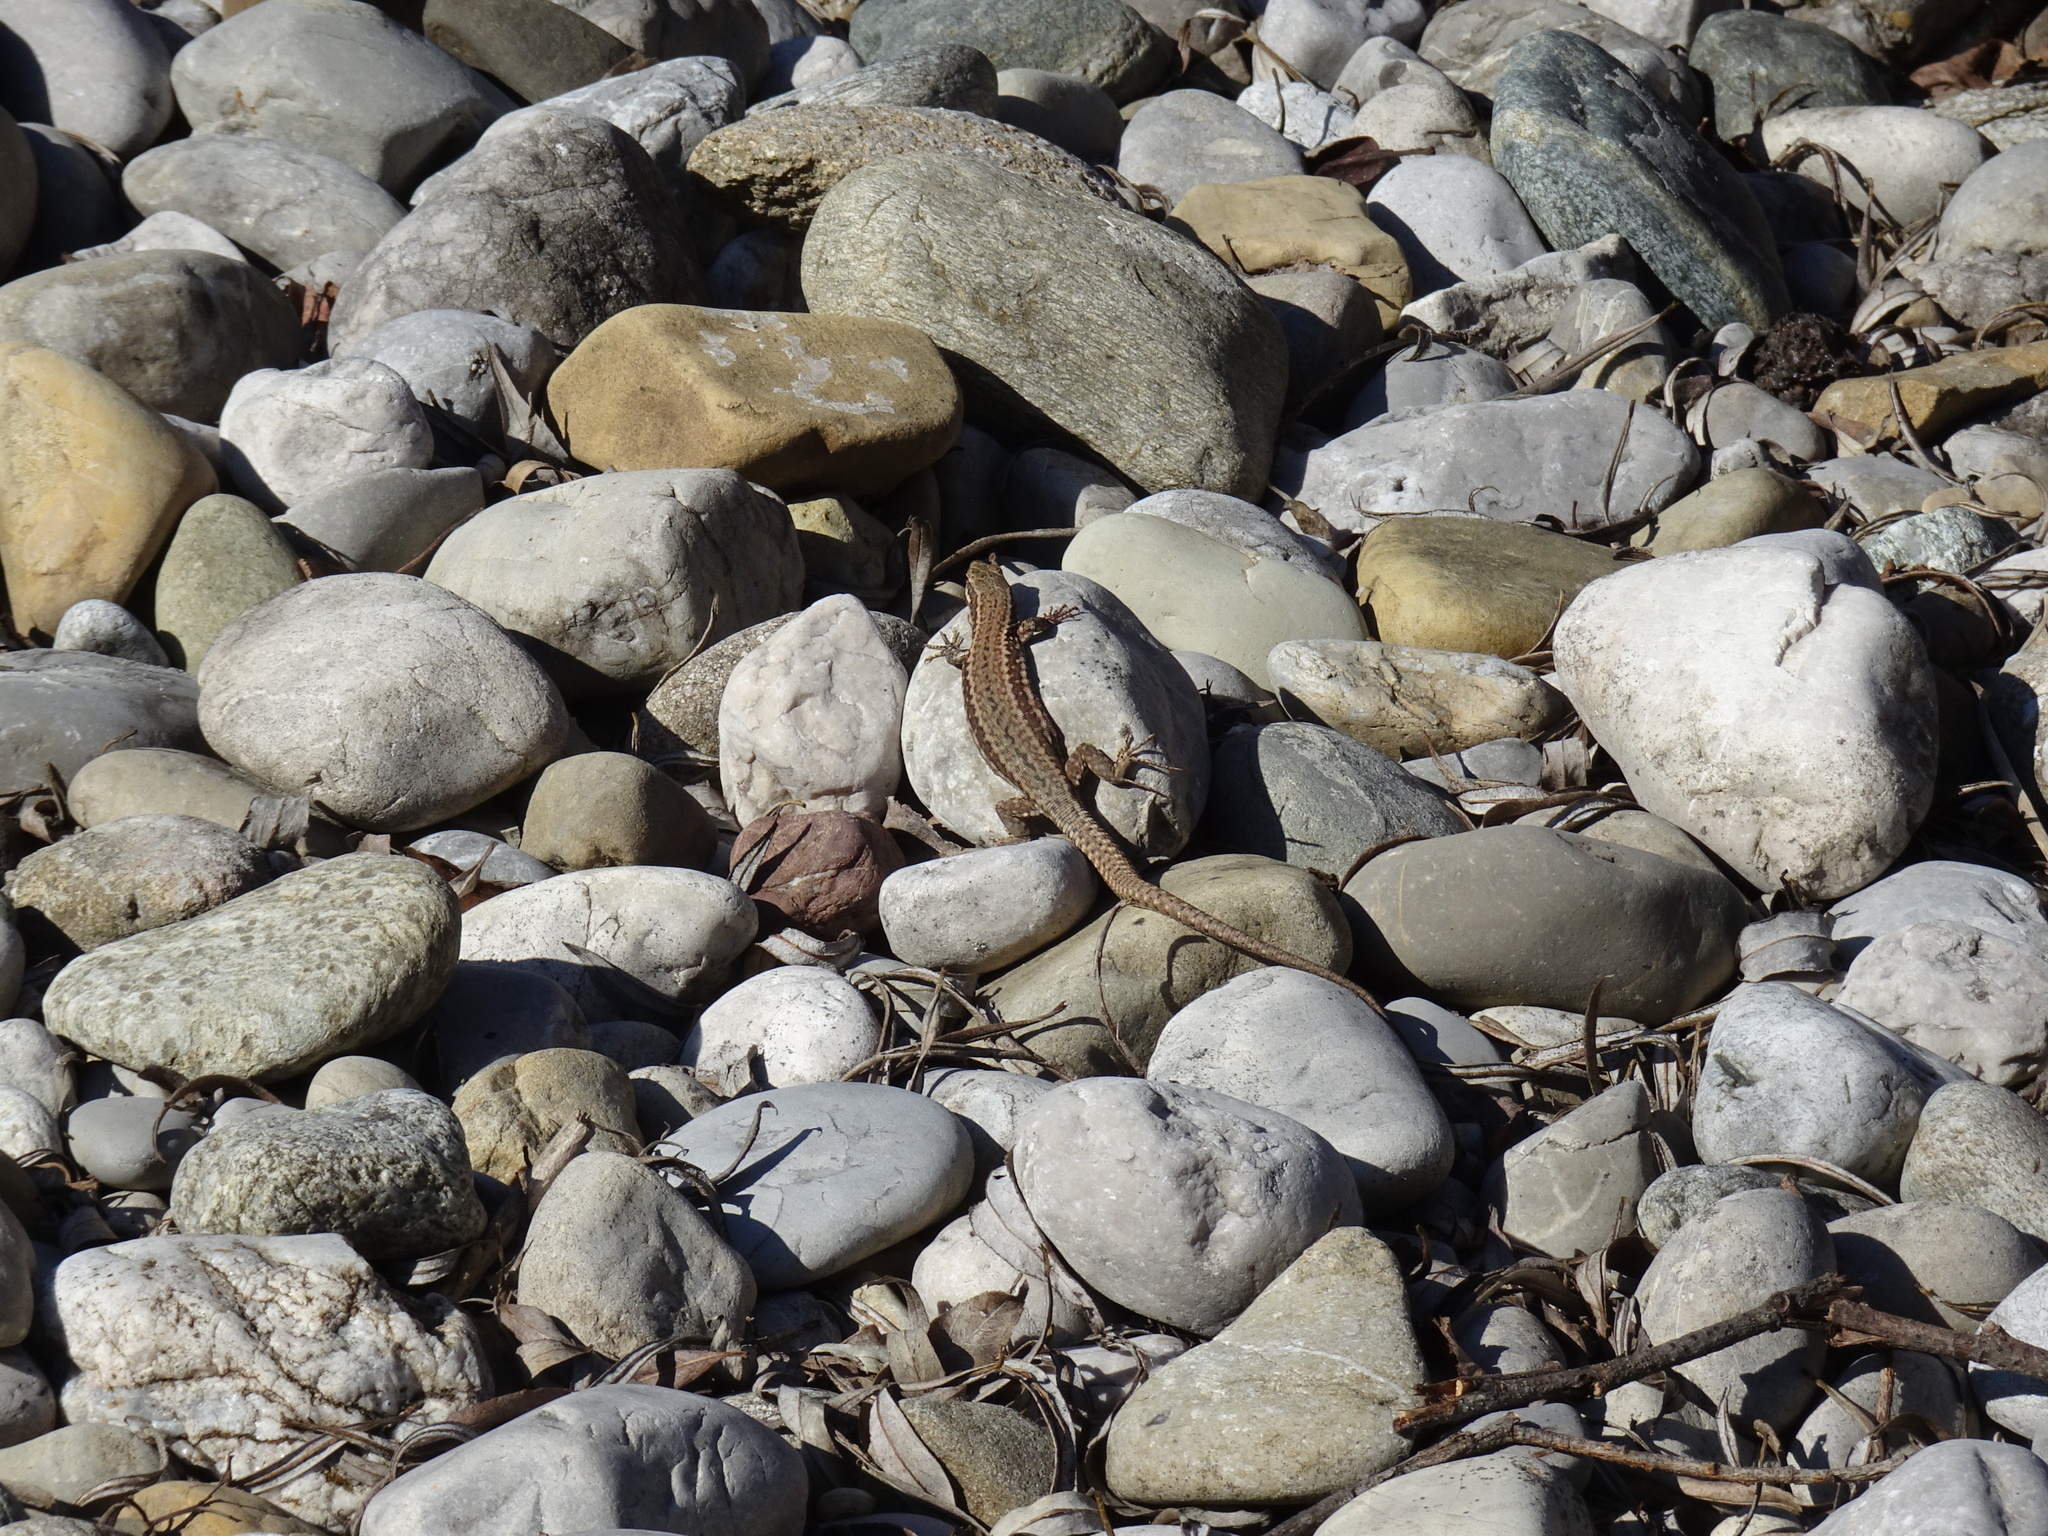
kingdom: Animalia
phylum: Chordata
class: Squamata
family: Lacertidae
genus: Podarcis
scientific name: Podarcis muralis
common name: Common wall lizard
